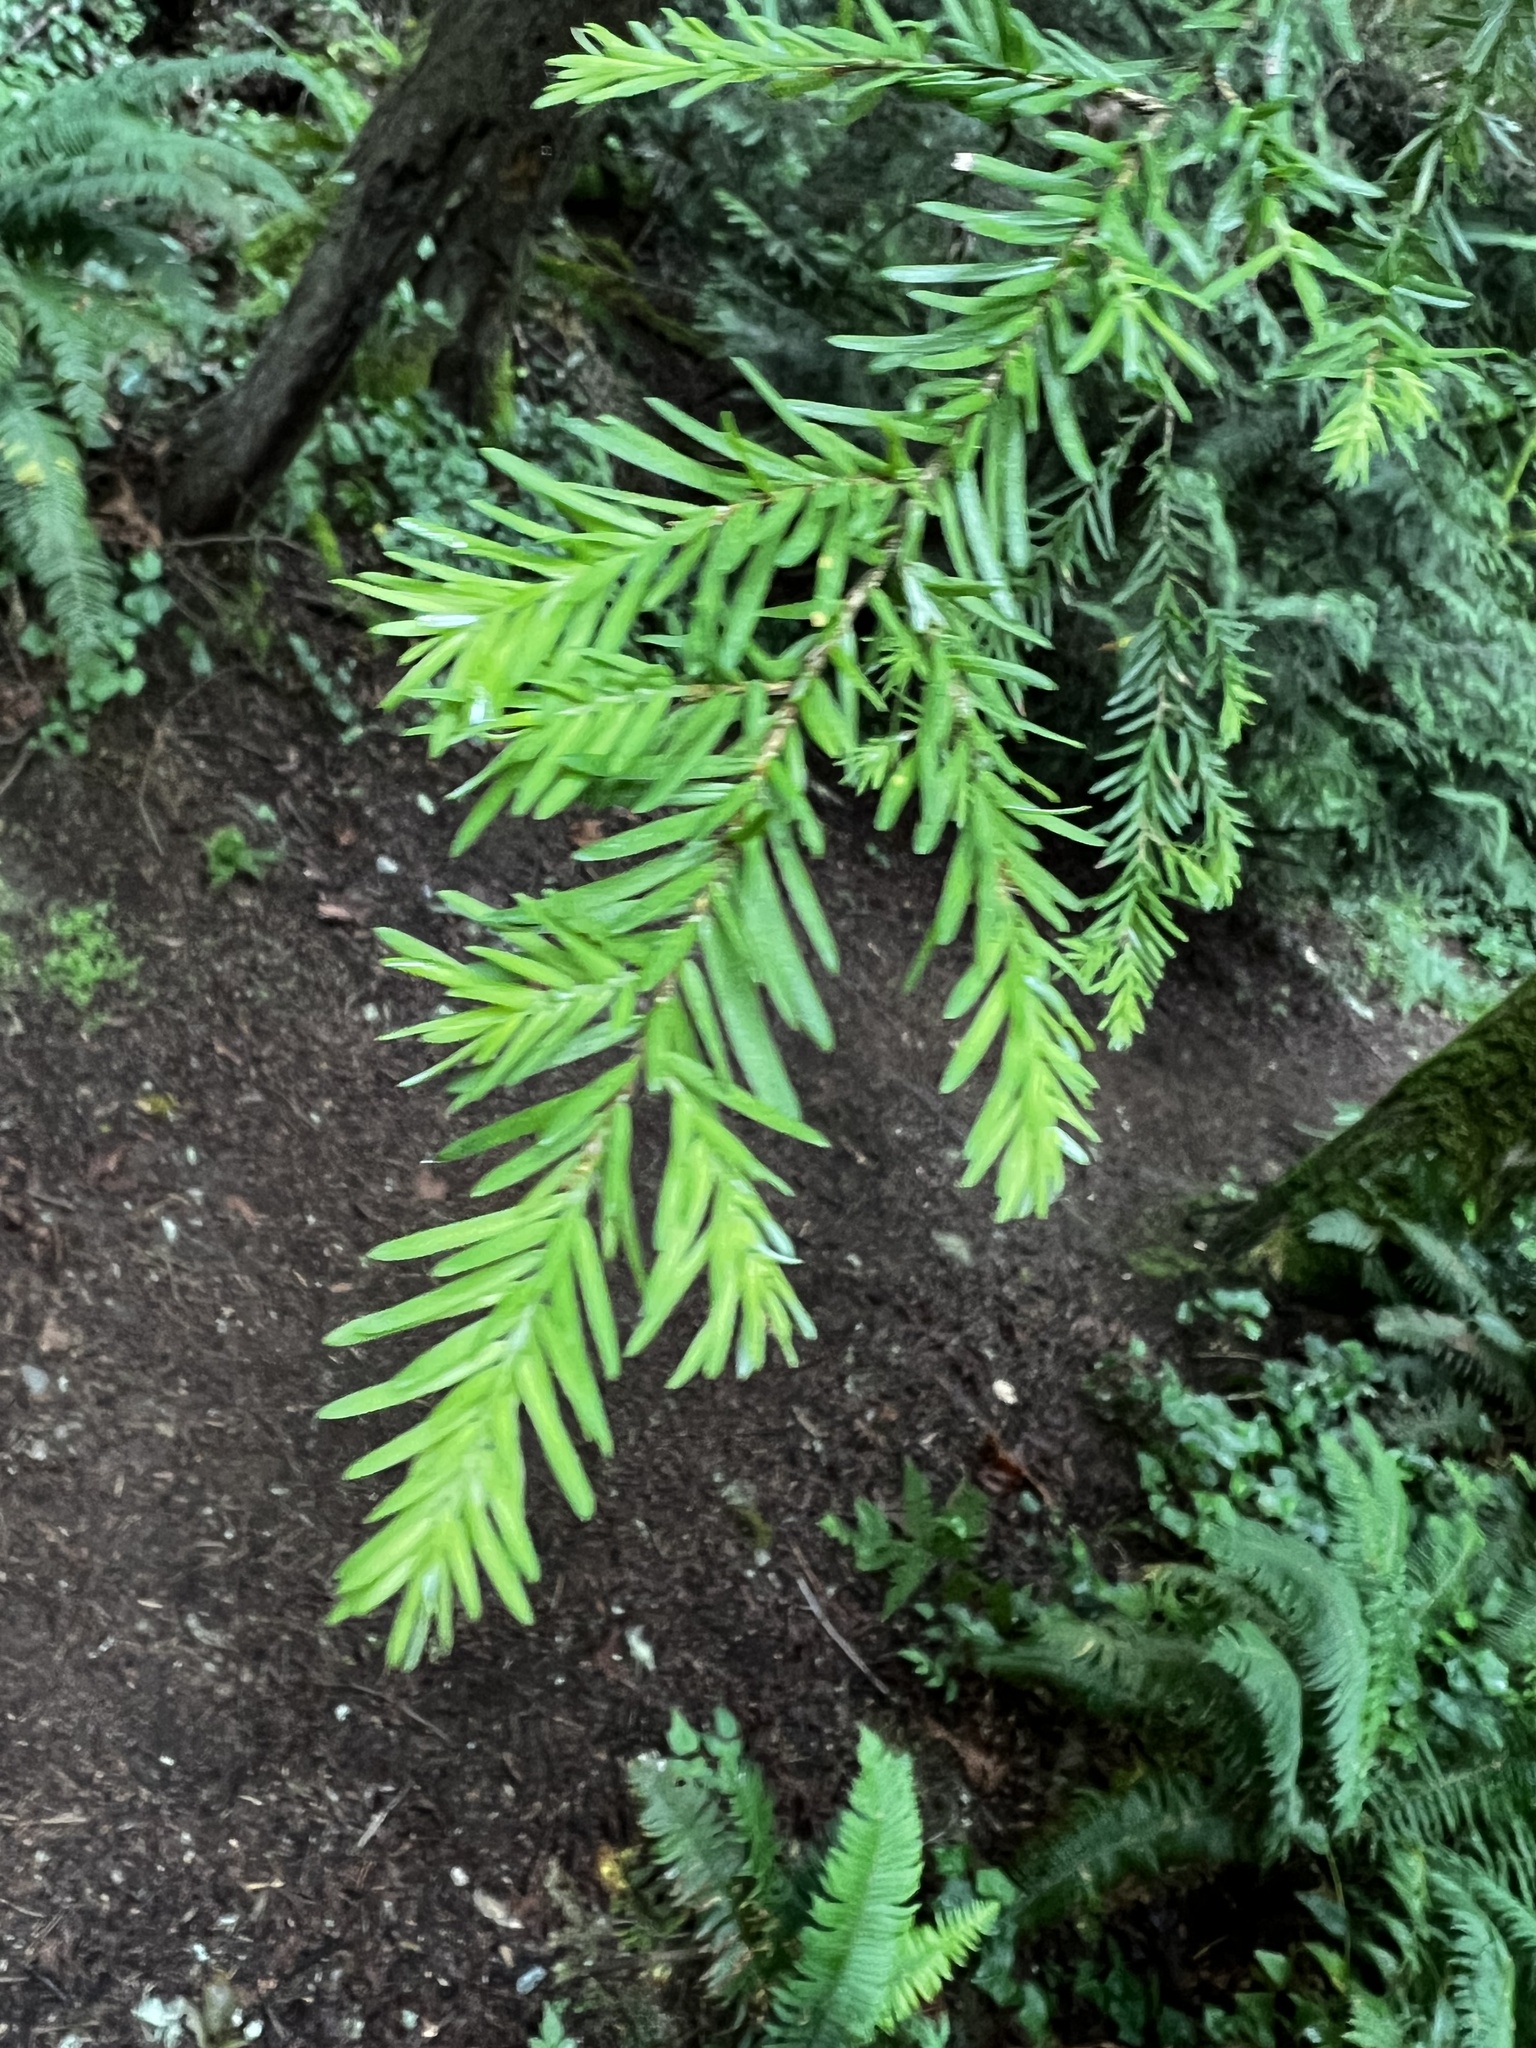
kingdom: Plantae
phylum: Tracheophyta
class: Pinopsida
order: Pinales
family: Pinaceae
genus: Tsuga
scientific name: Tsuga heterophylla
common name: Western hemlock
